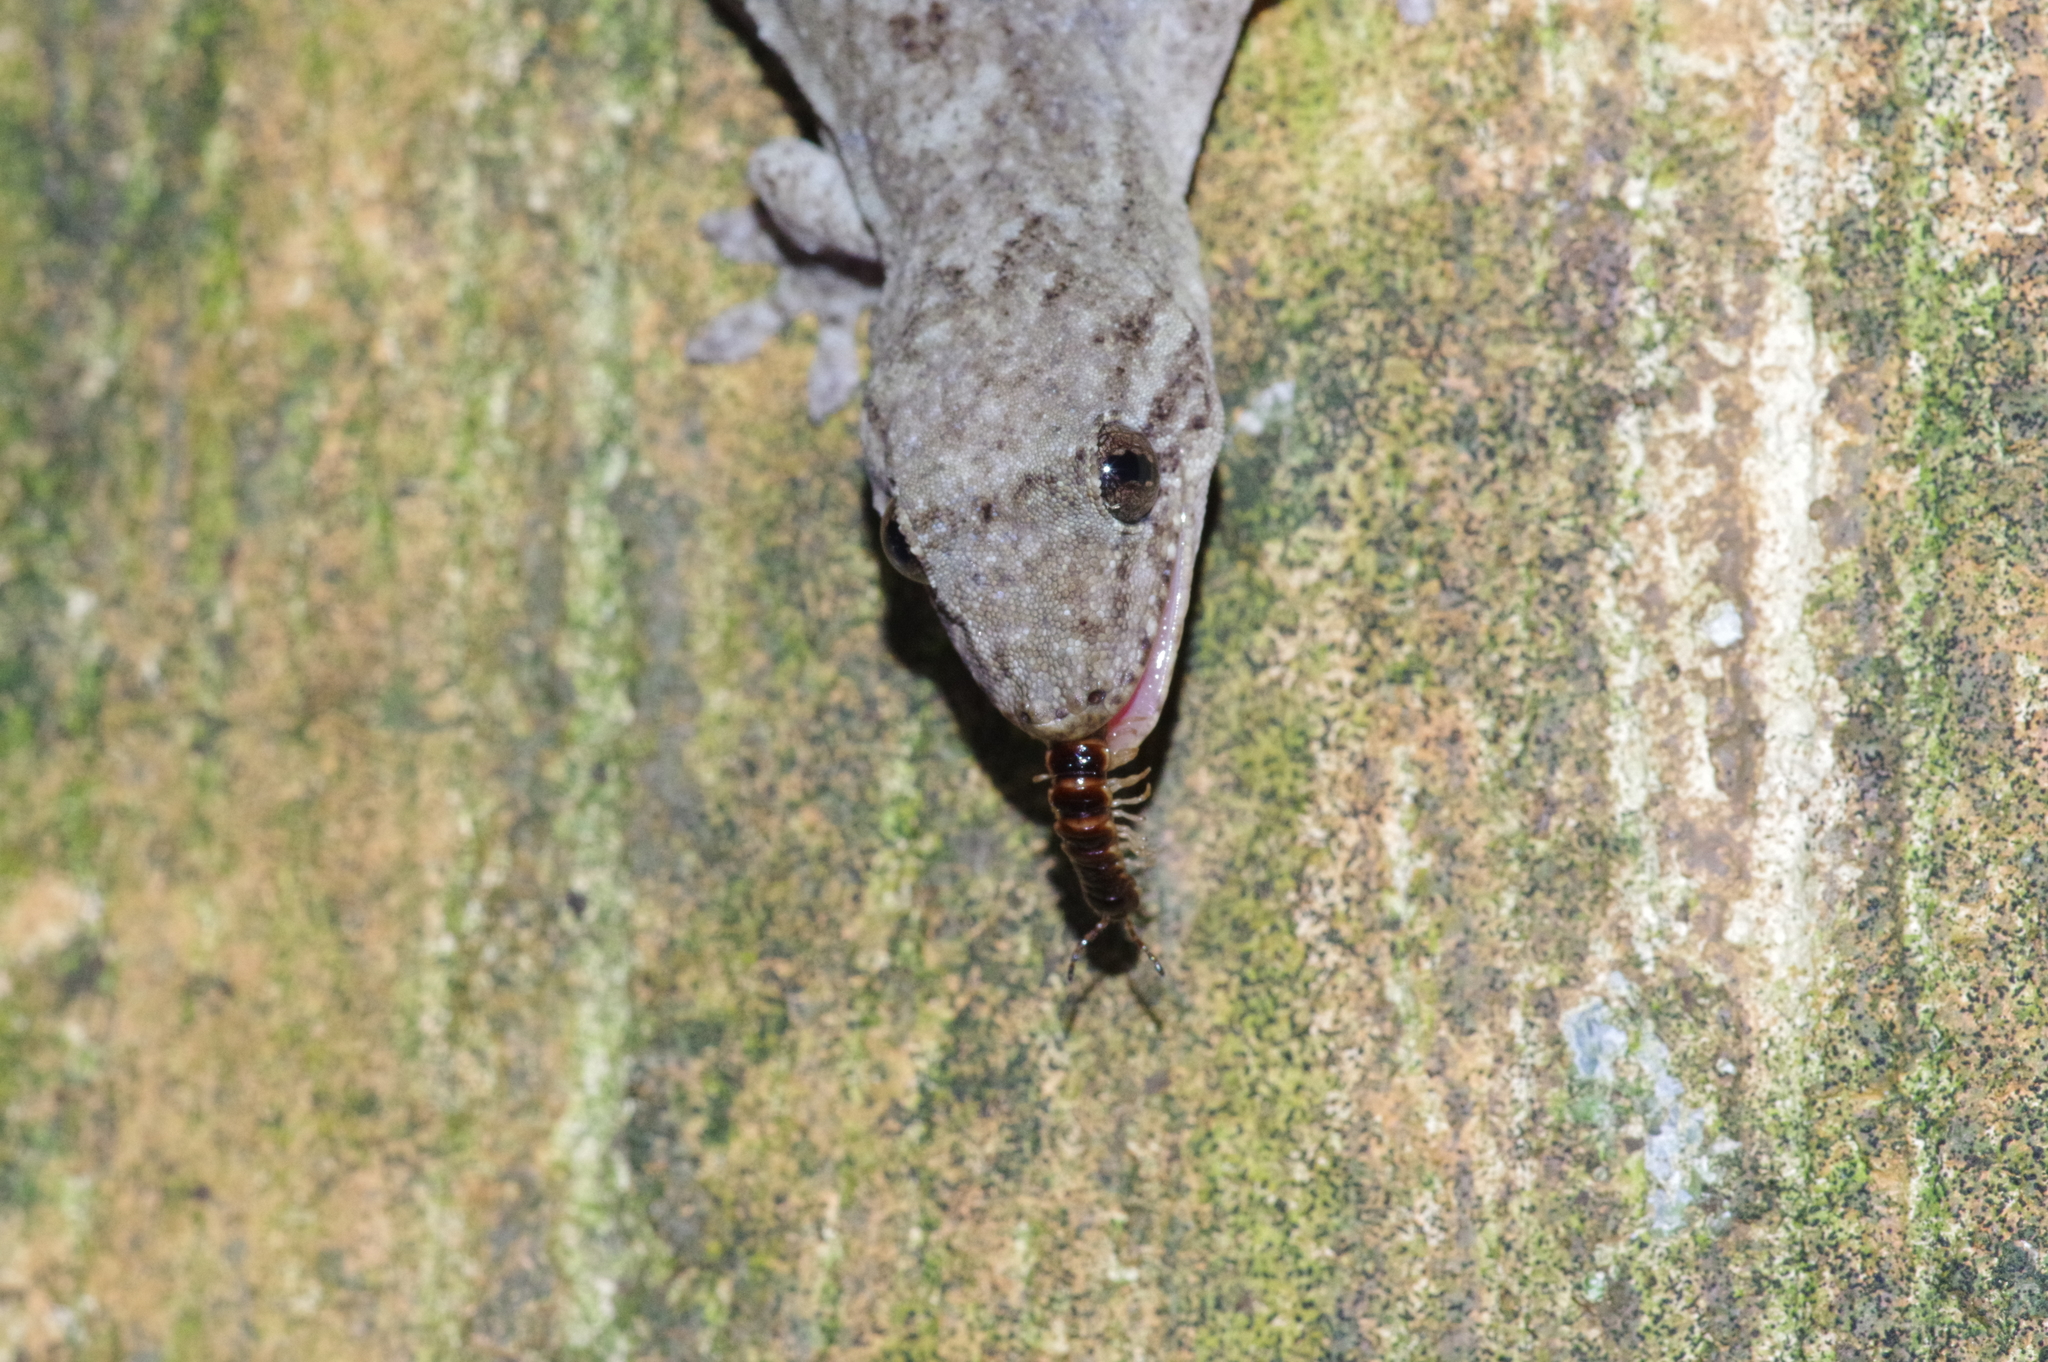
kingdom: Animalia
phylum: Chordata
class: Squamata
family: Gekkonidae
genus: Gekko
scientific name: Gekko hokouensis
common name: Kwangsi gecko
